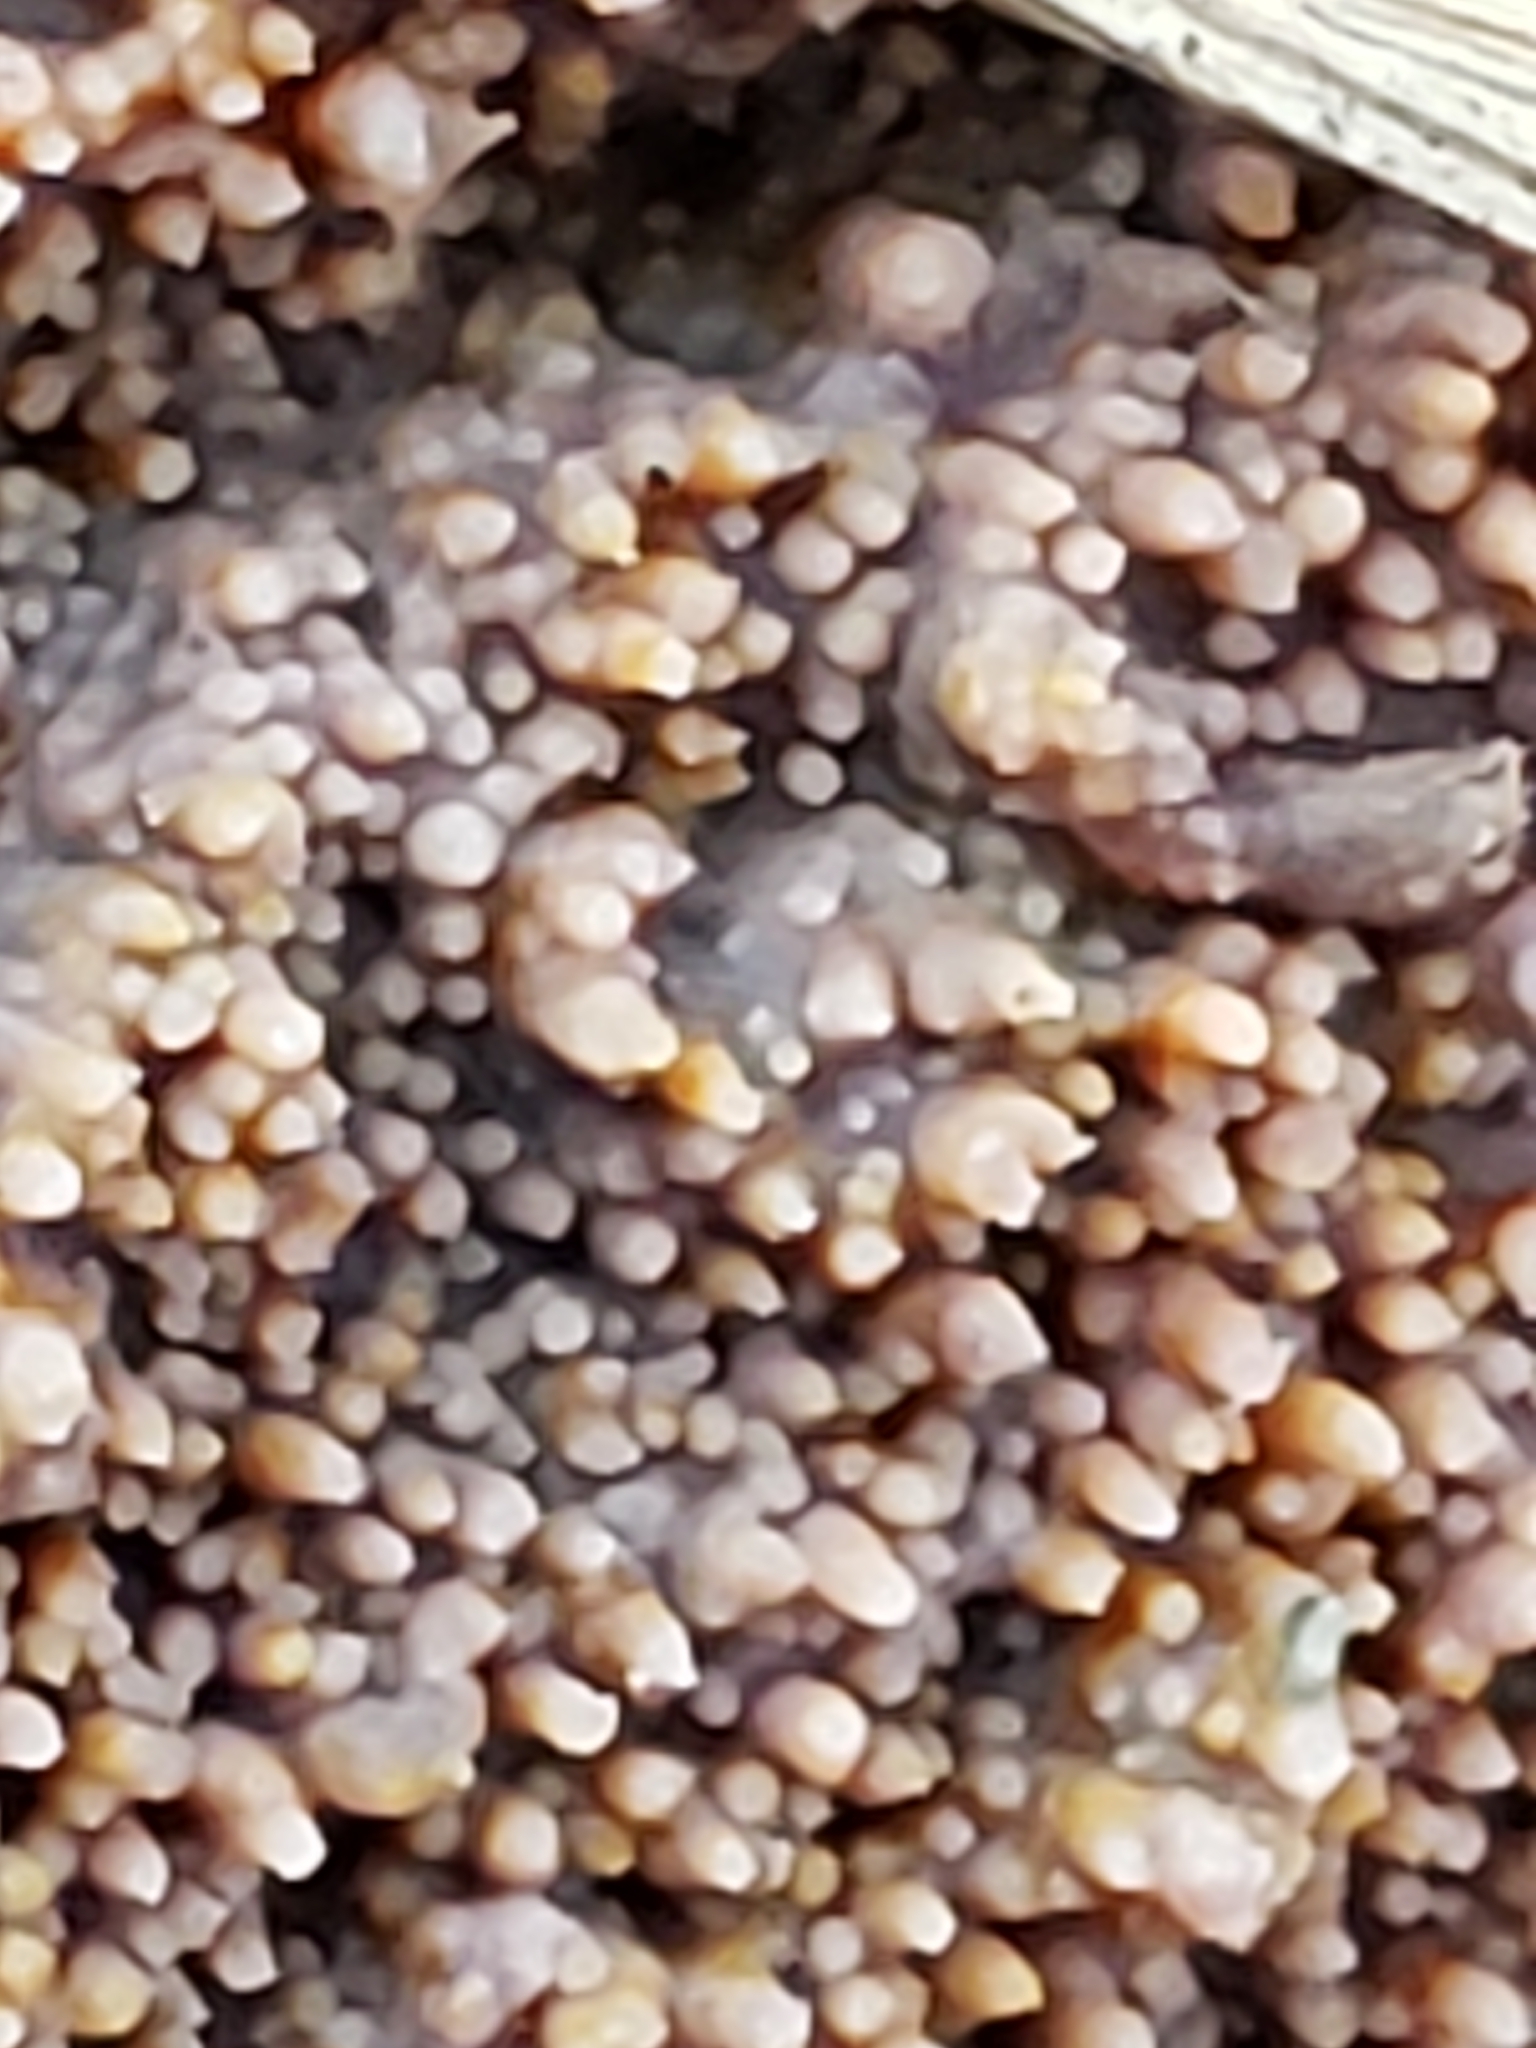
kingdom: Fungi
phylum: Basidiomycota
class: Agaricomycetes
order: Polyporales
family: Meruliaceae
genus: Mycoacia
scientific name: Mycoacia fuscoatra
